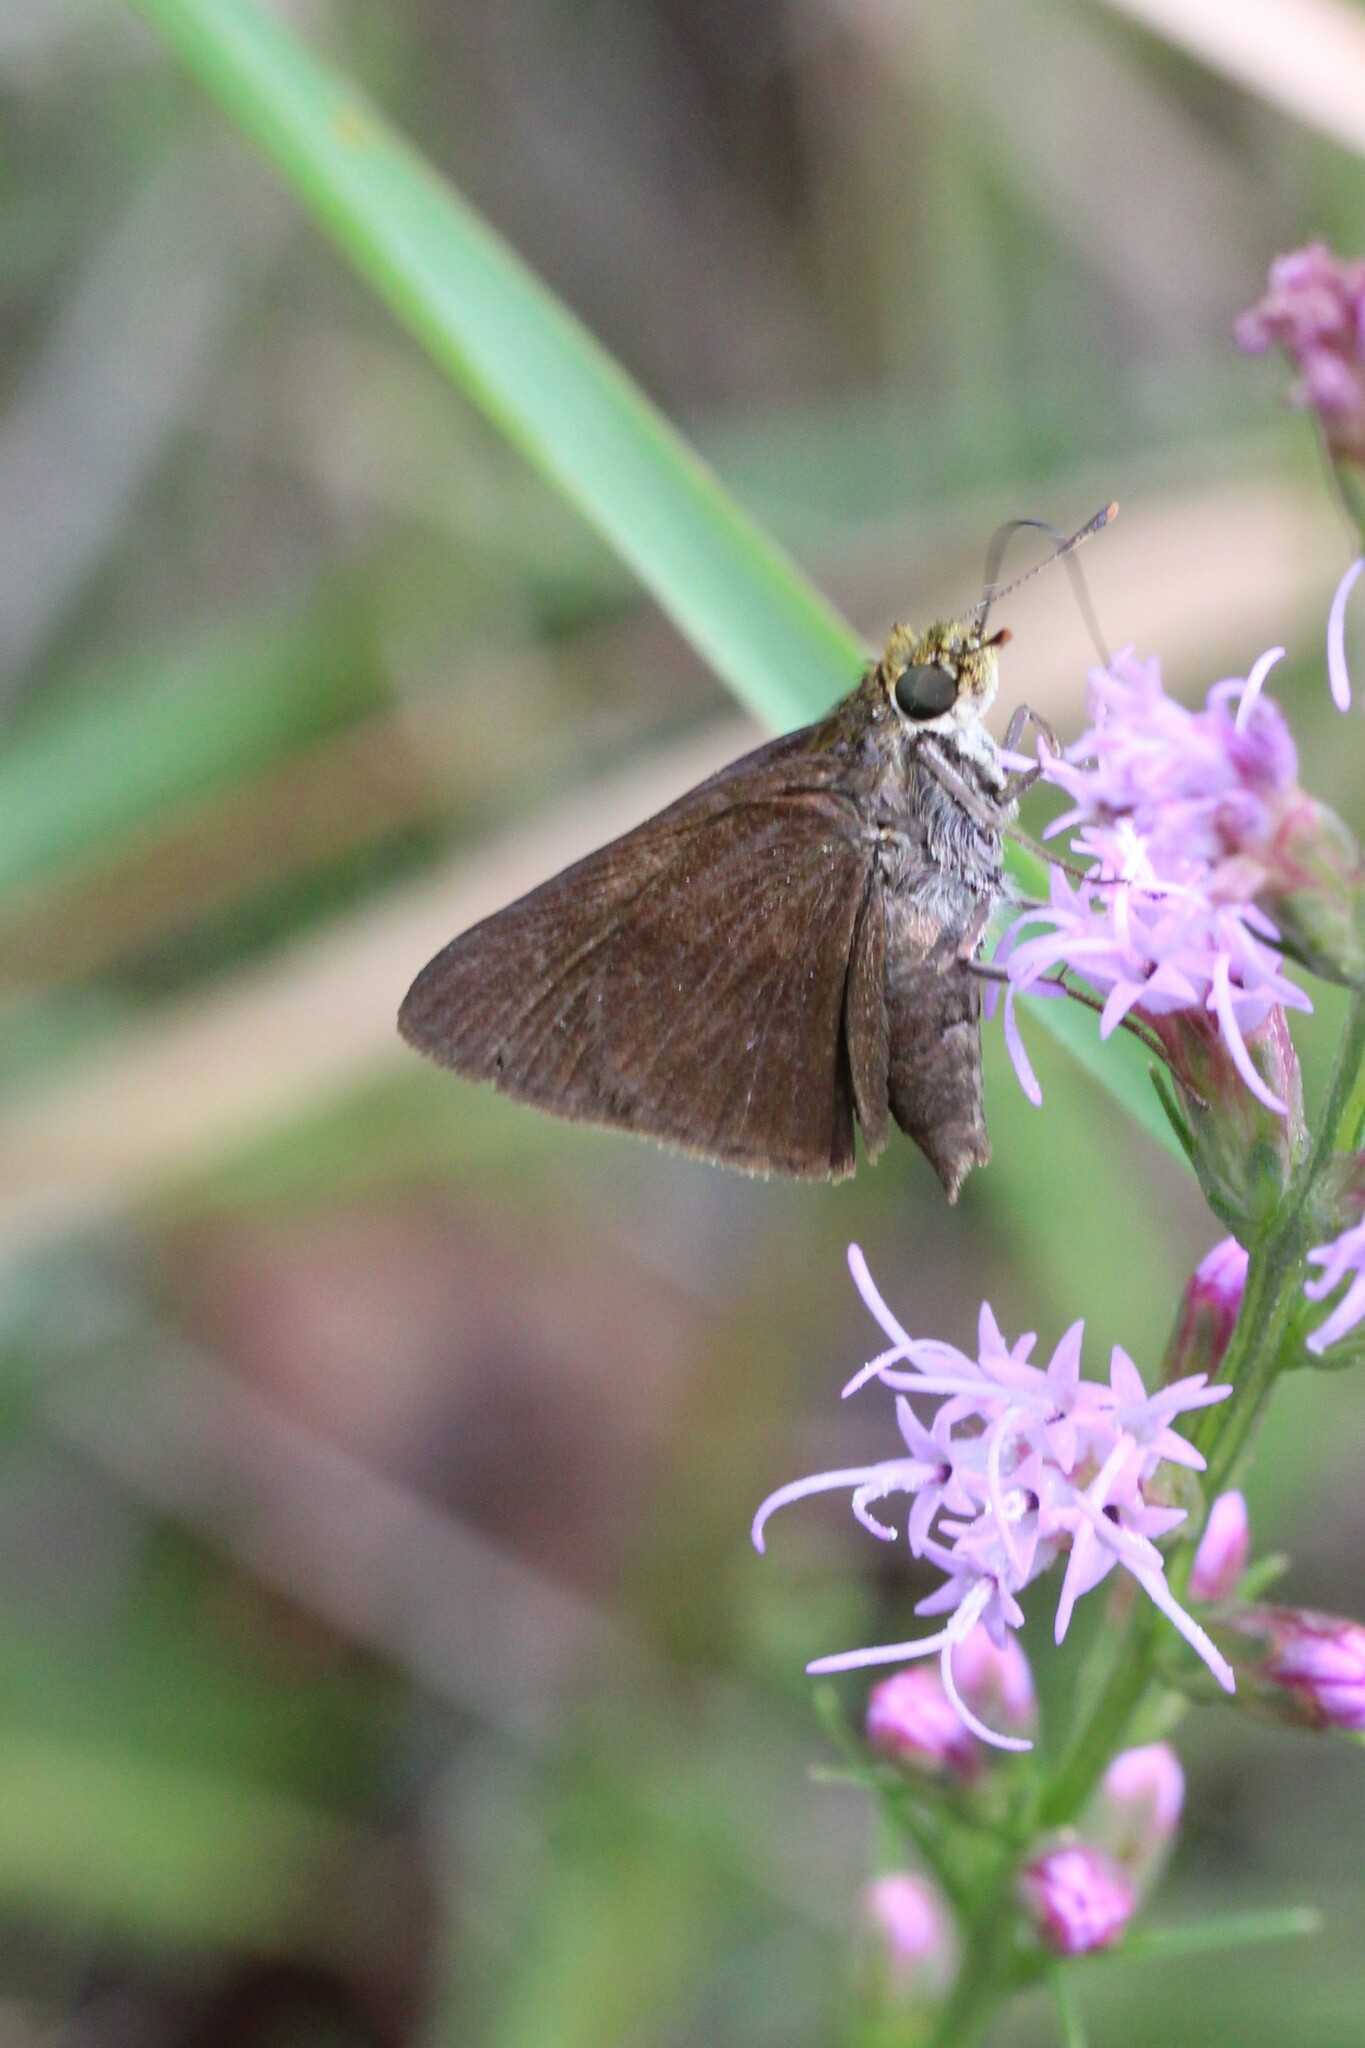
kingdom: Animalia
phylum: Arthropoda
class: Insecta
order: Lepidoptera
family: Hesperiidae
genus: Euphyes
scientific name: Euphyes vestris
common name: Dun skipper
